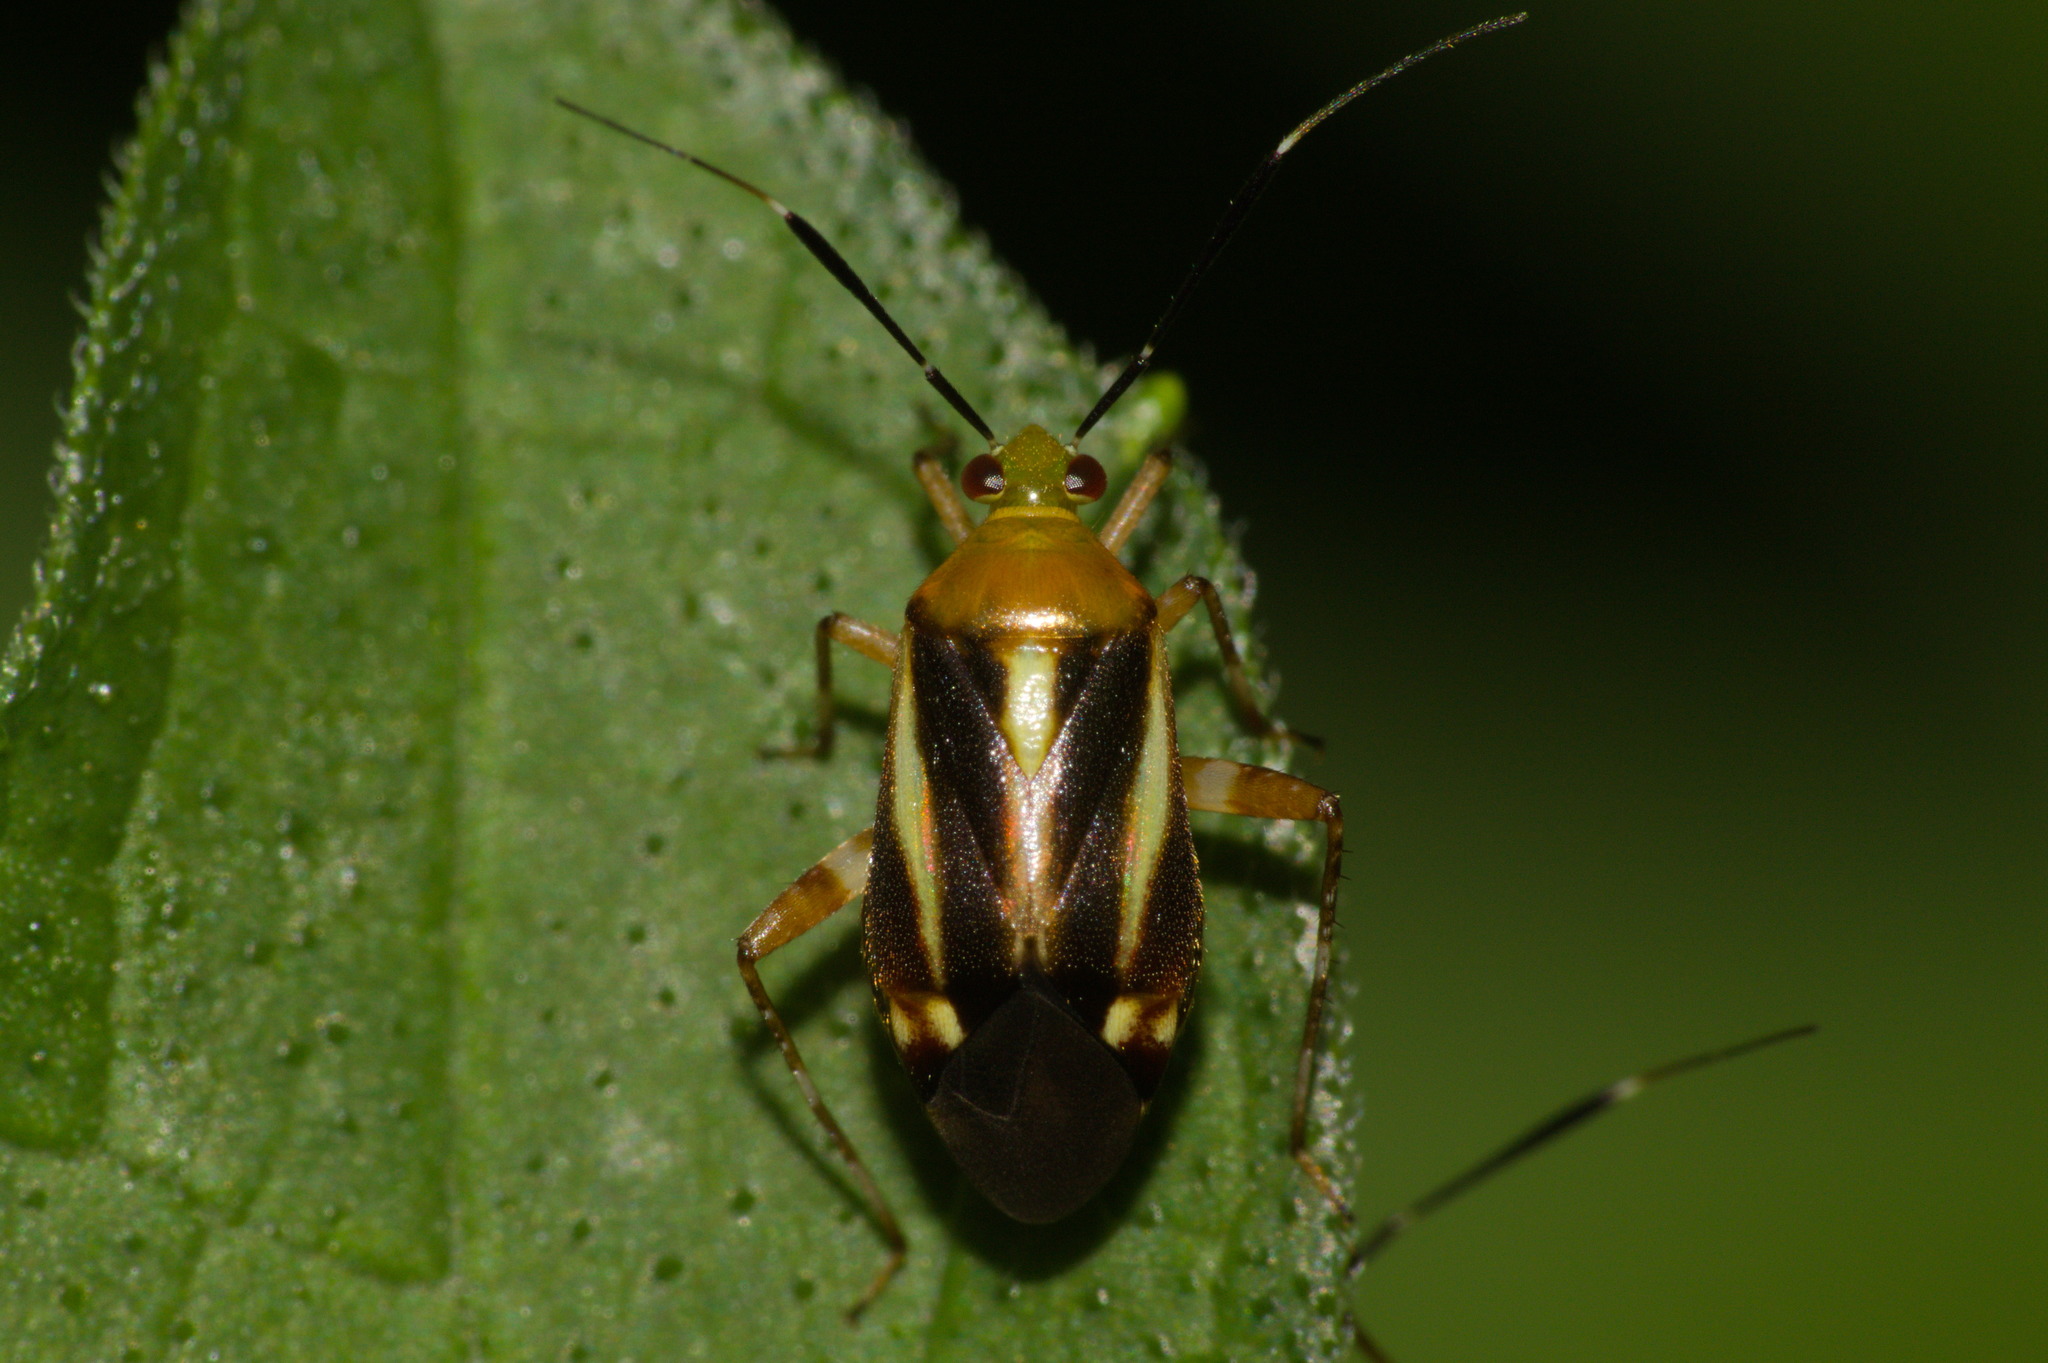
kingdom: Animalia
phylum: Arthropoda
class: Insecta
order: Hemiptera
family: Miridae
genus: Horciasinus
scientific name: Horciasinus signoreti
